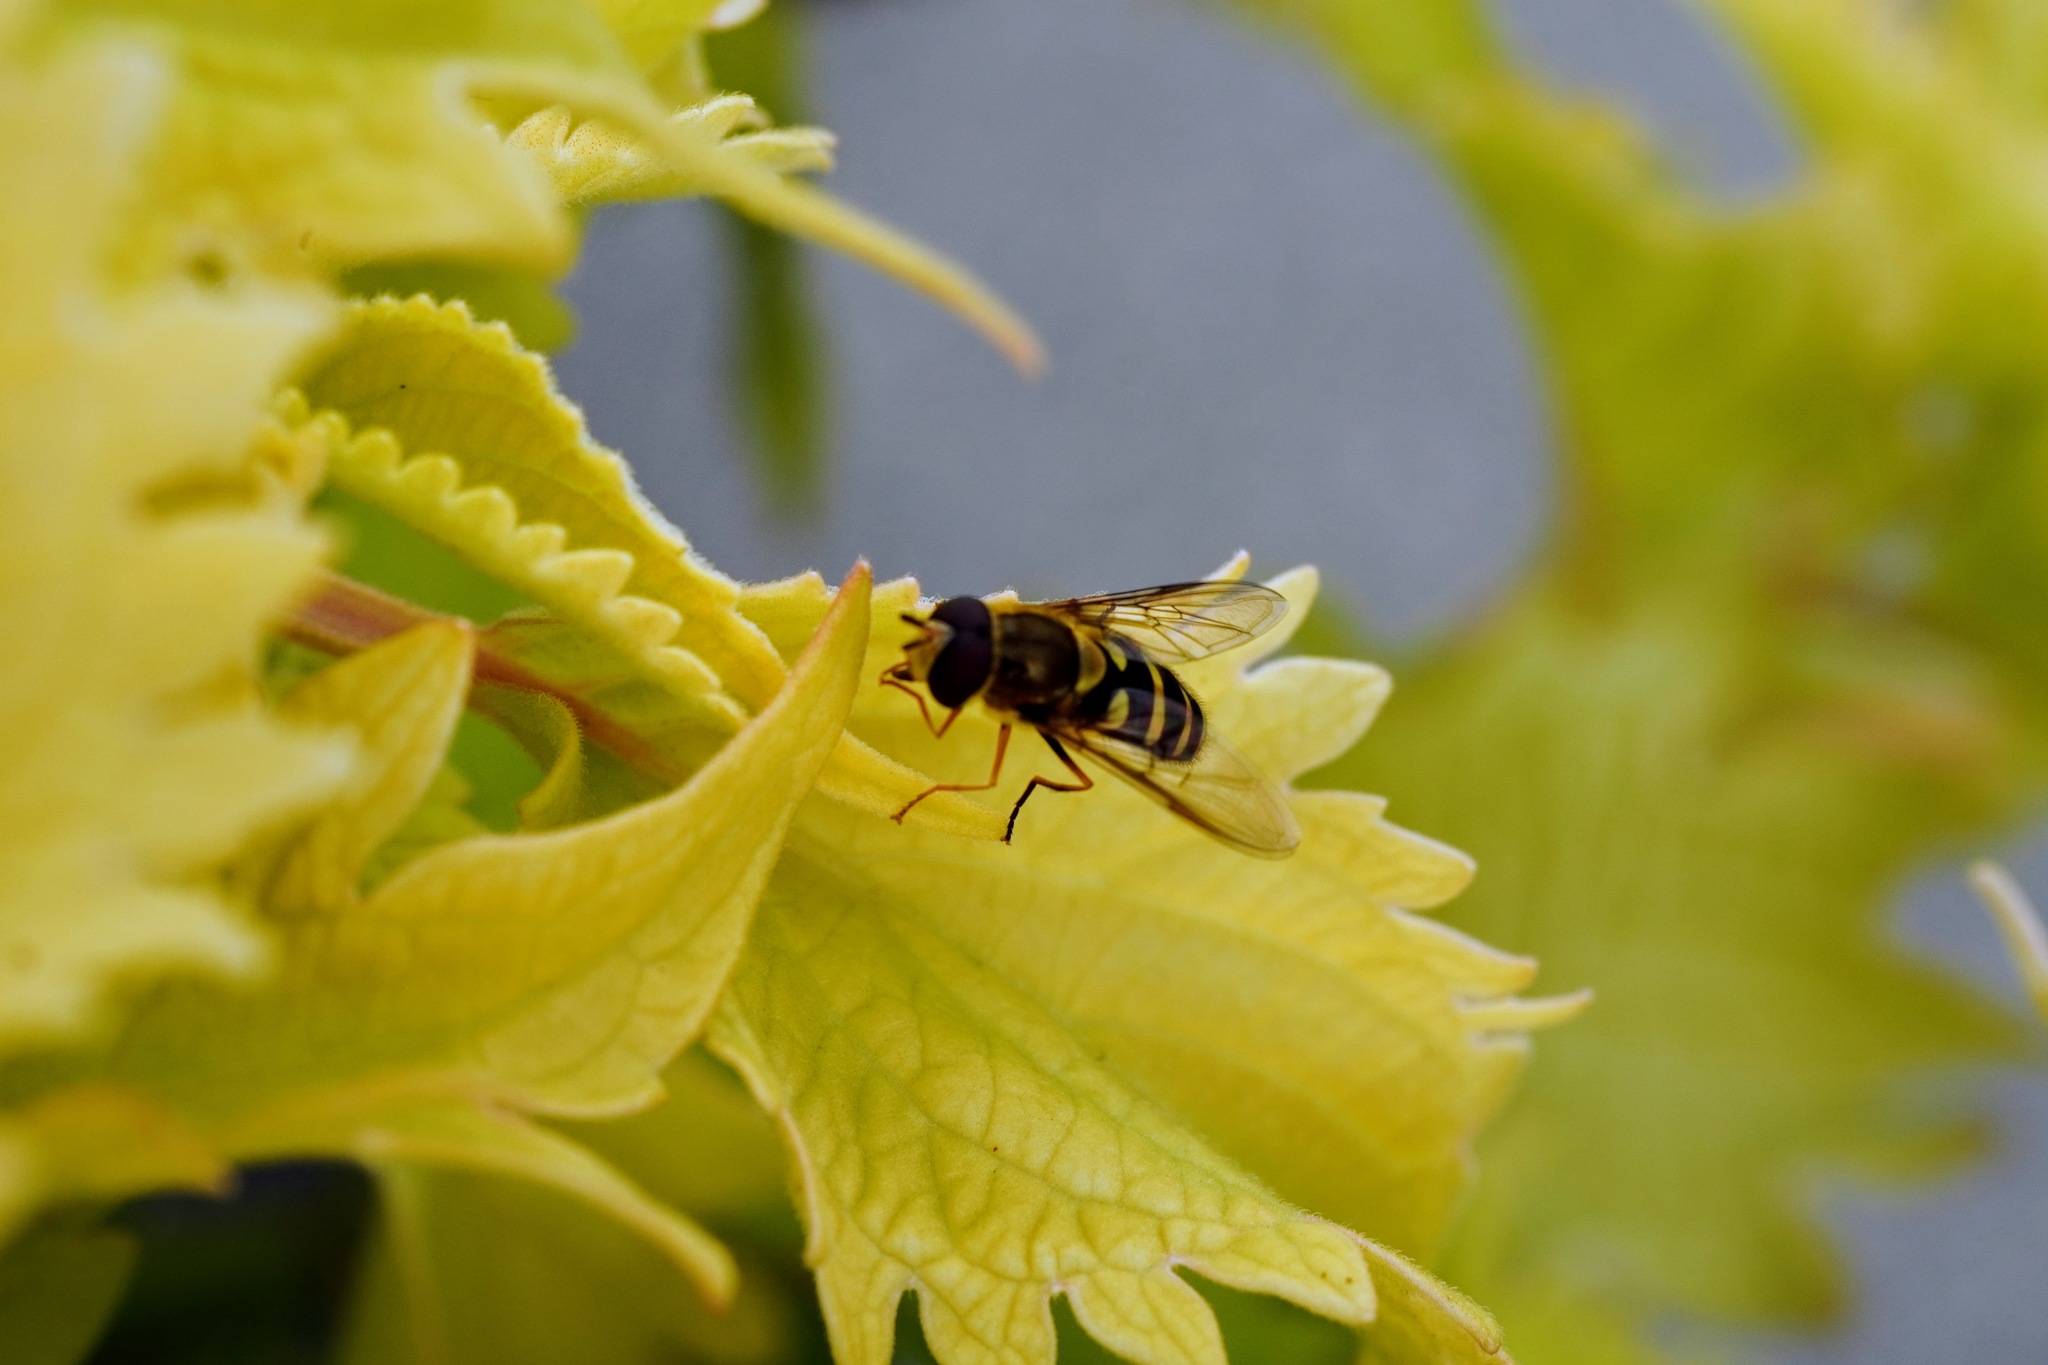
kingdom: Animalia
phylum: Arthropoda
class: Insecta
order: Diptera
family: Syrphidae
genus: Syrphus
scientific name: Syrphus opinator
